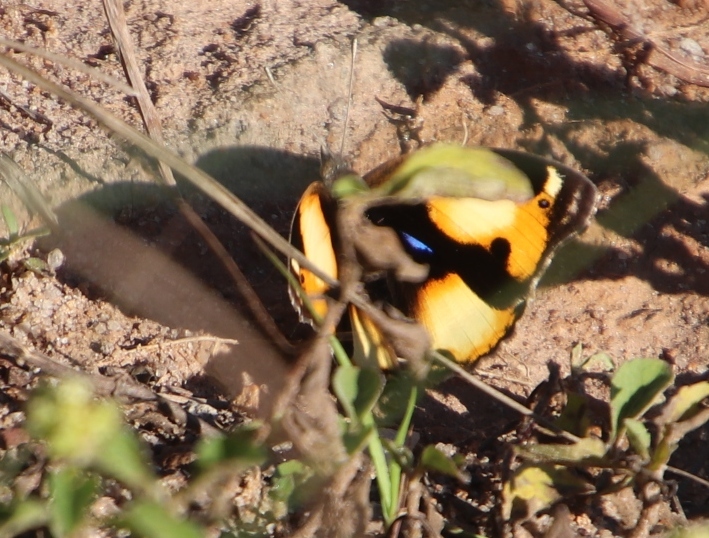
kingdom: Animalia
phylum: Arthropoda
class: Insecta
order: Lepidoptera
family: Nymphalidae
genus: Junonia
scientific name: Junonia hierta
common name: Yellow pansy
